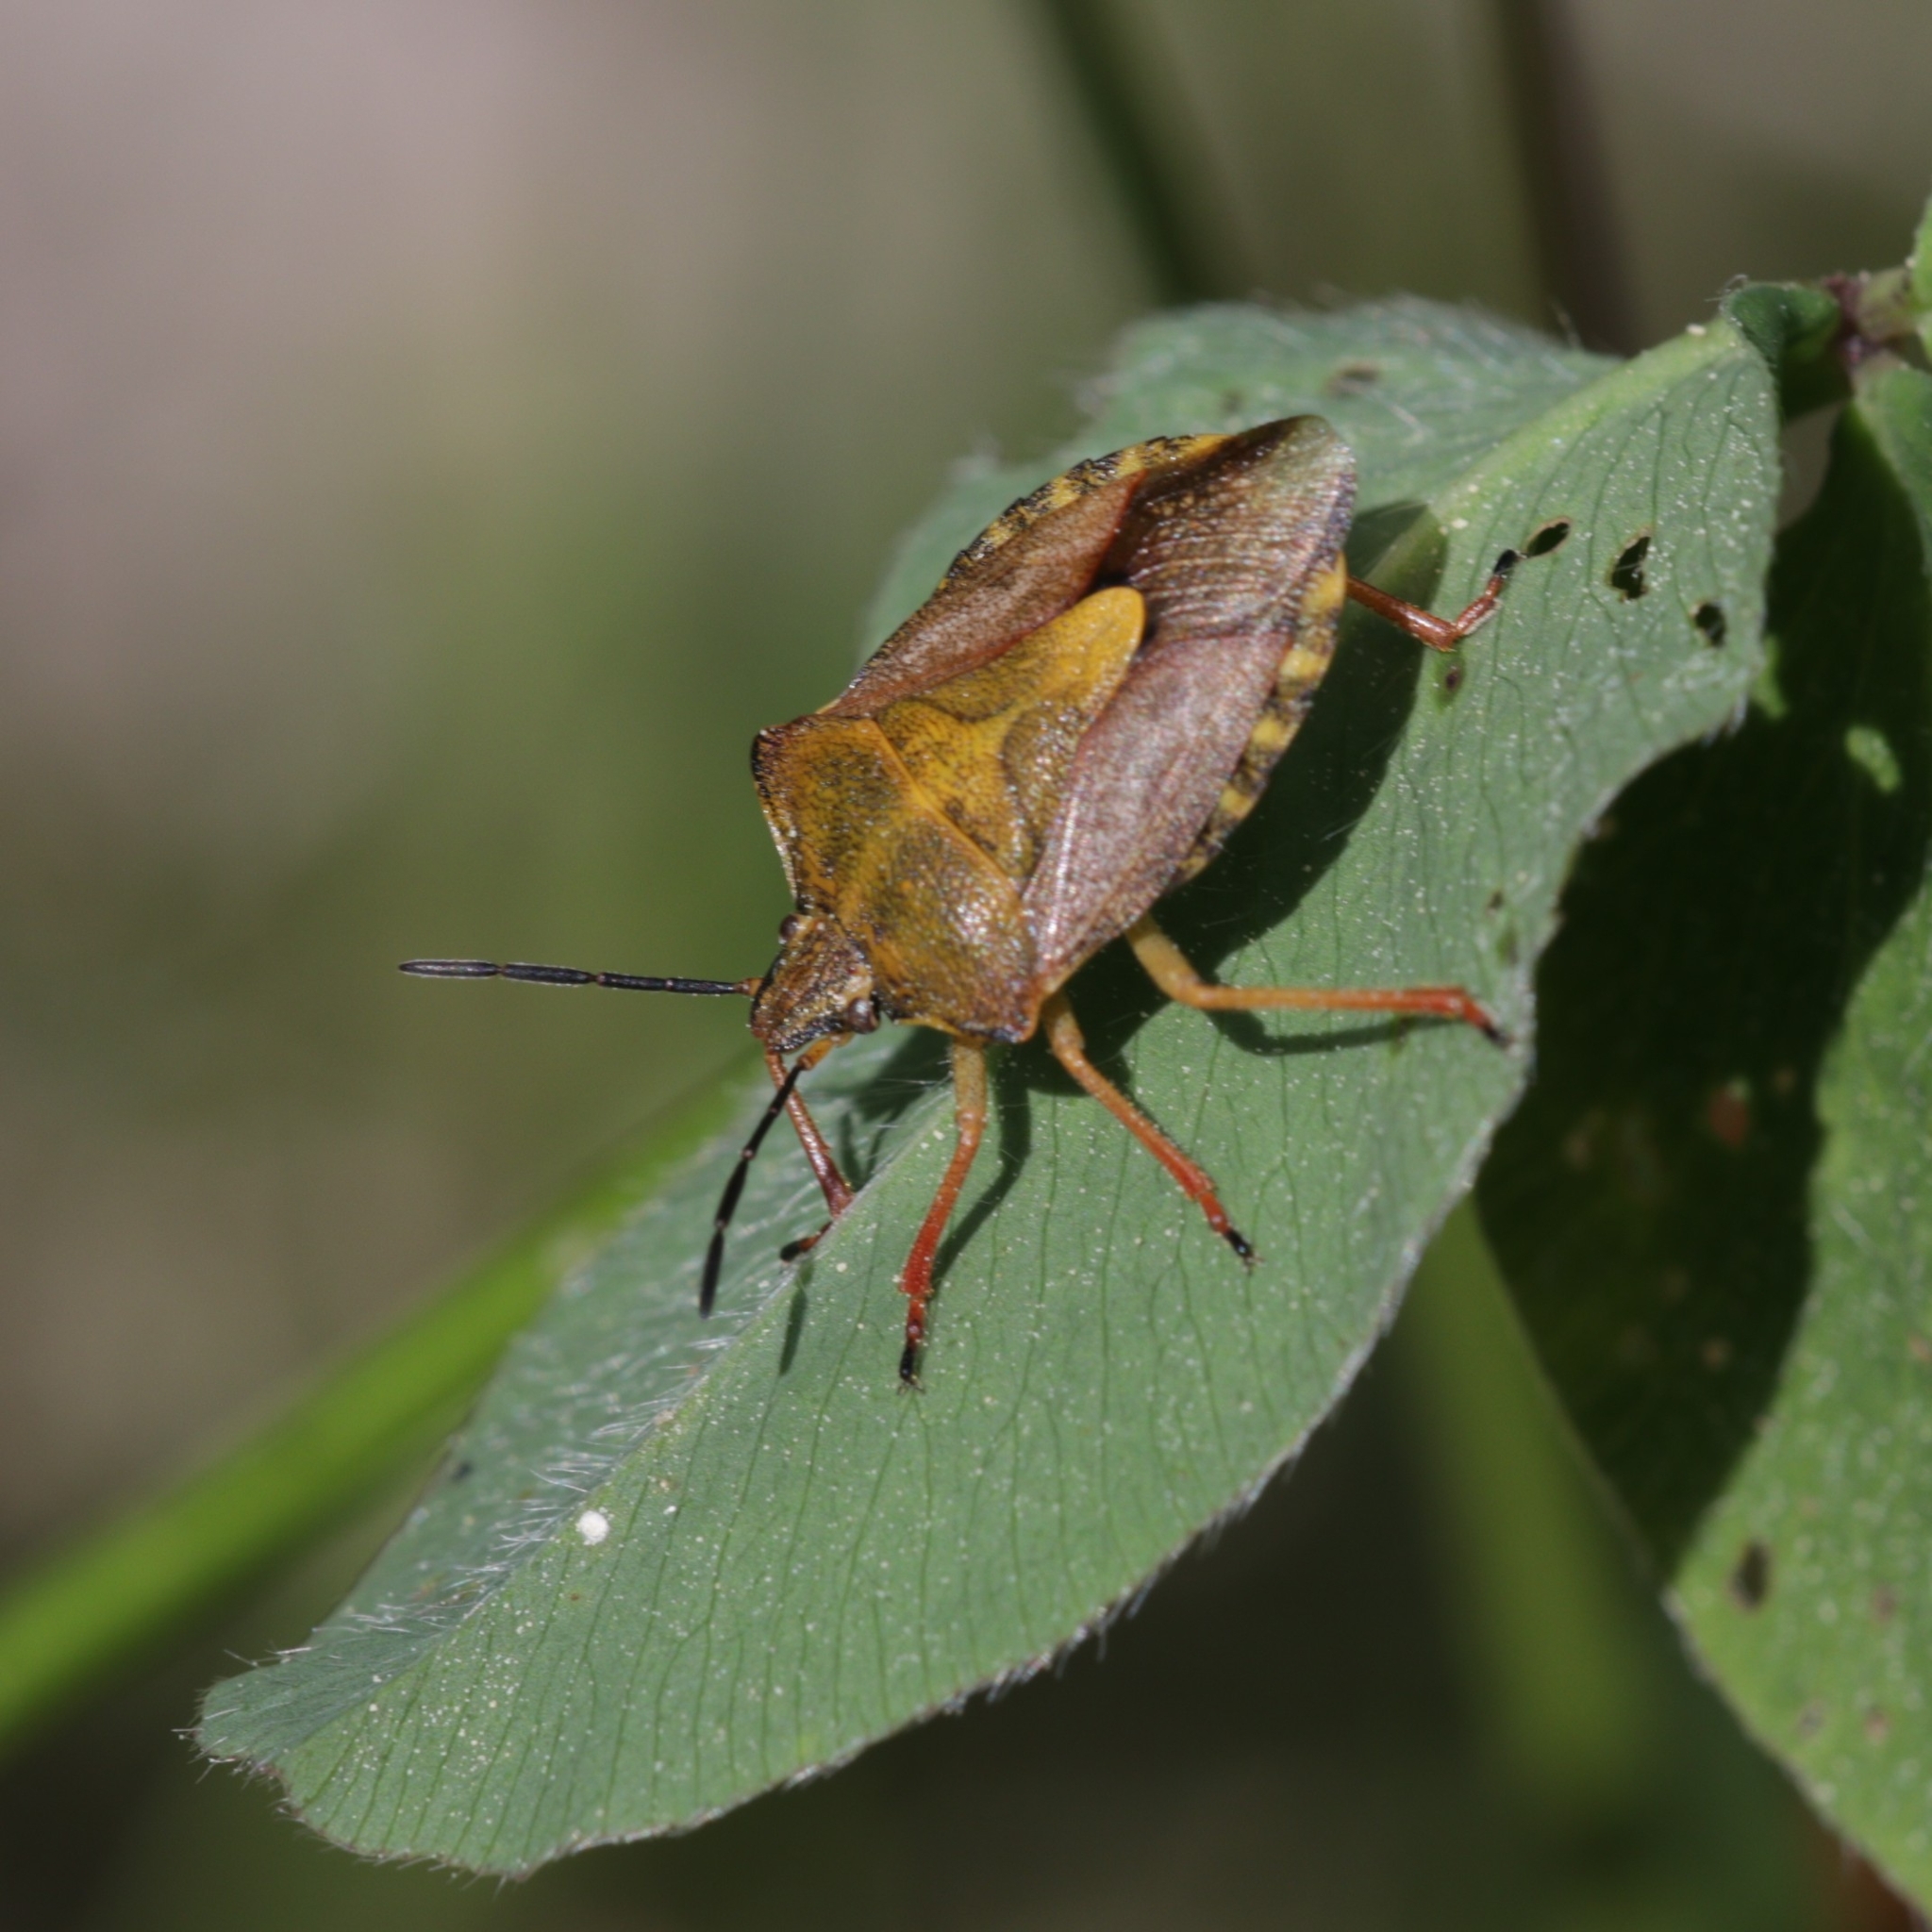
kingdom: Animalia
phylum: Arthropoda
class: Insecta
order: Hemiptera
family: Pentatomidae
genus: Carpocoris
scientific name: Carpocoris purpureipennis
